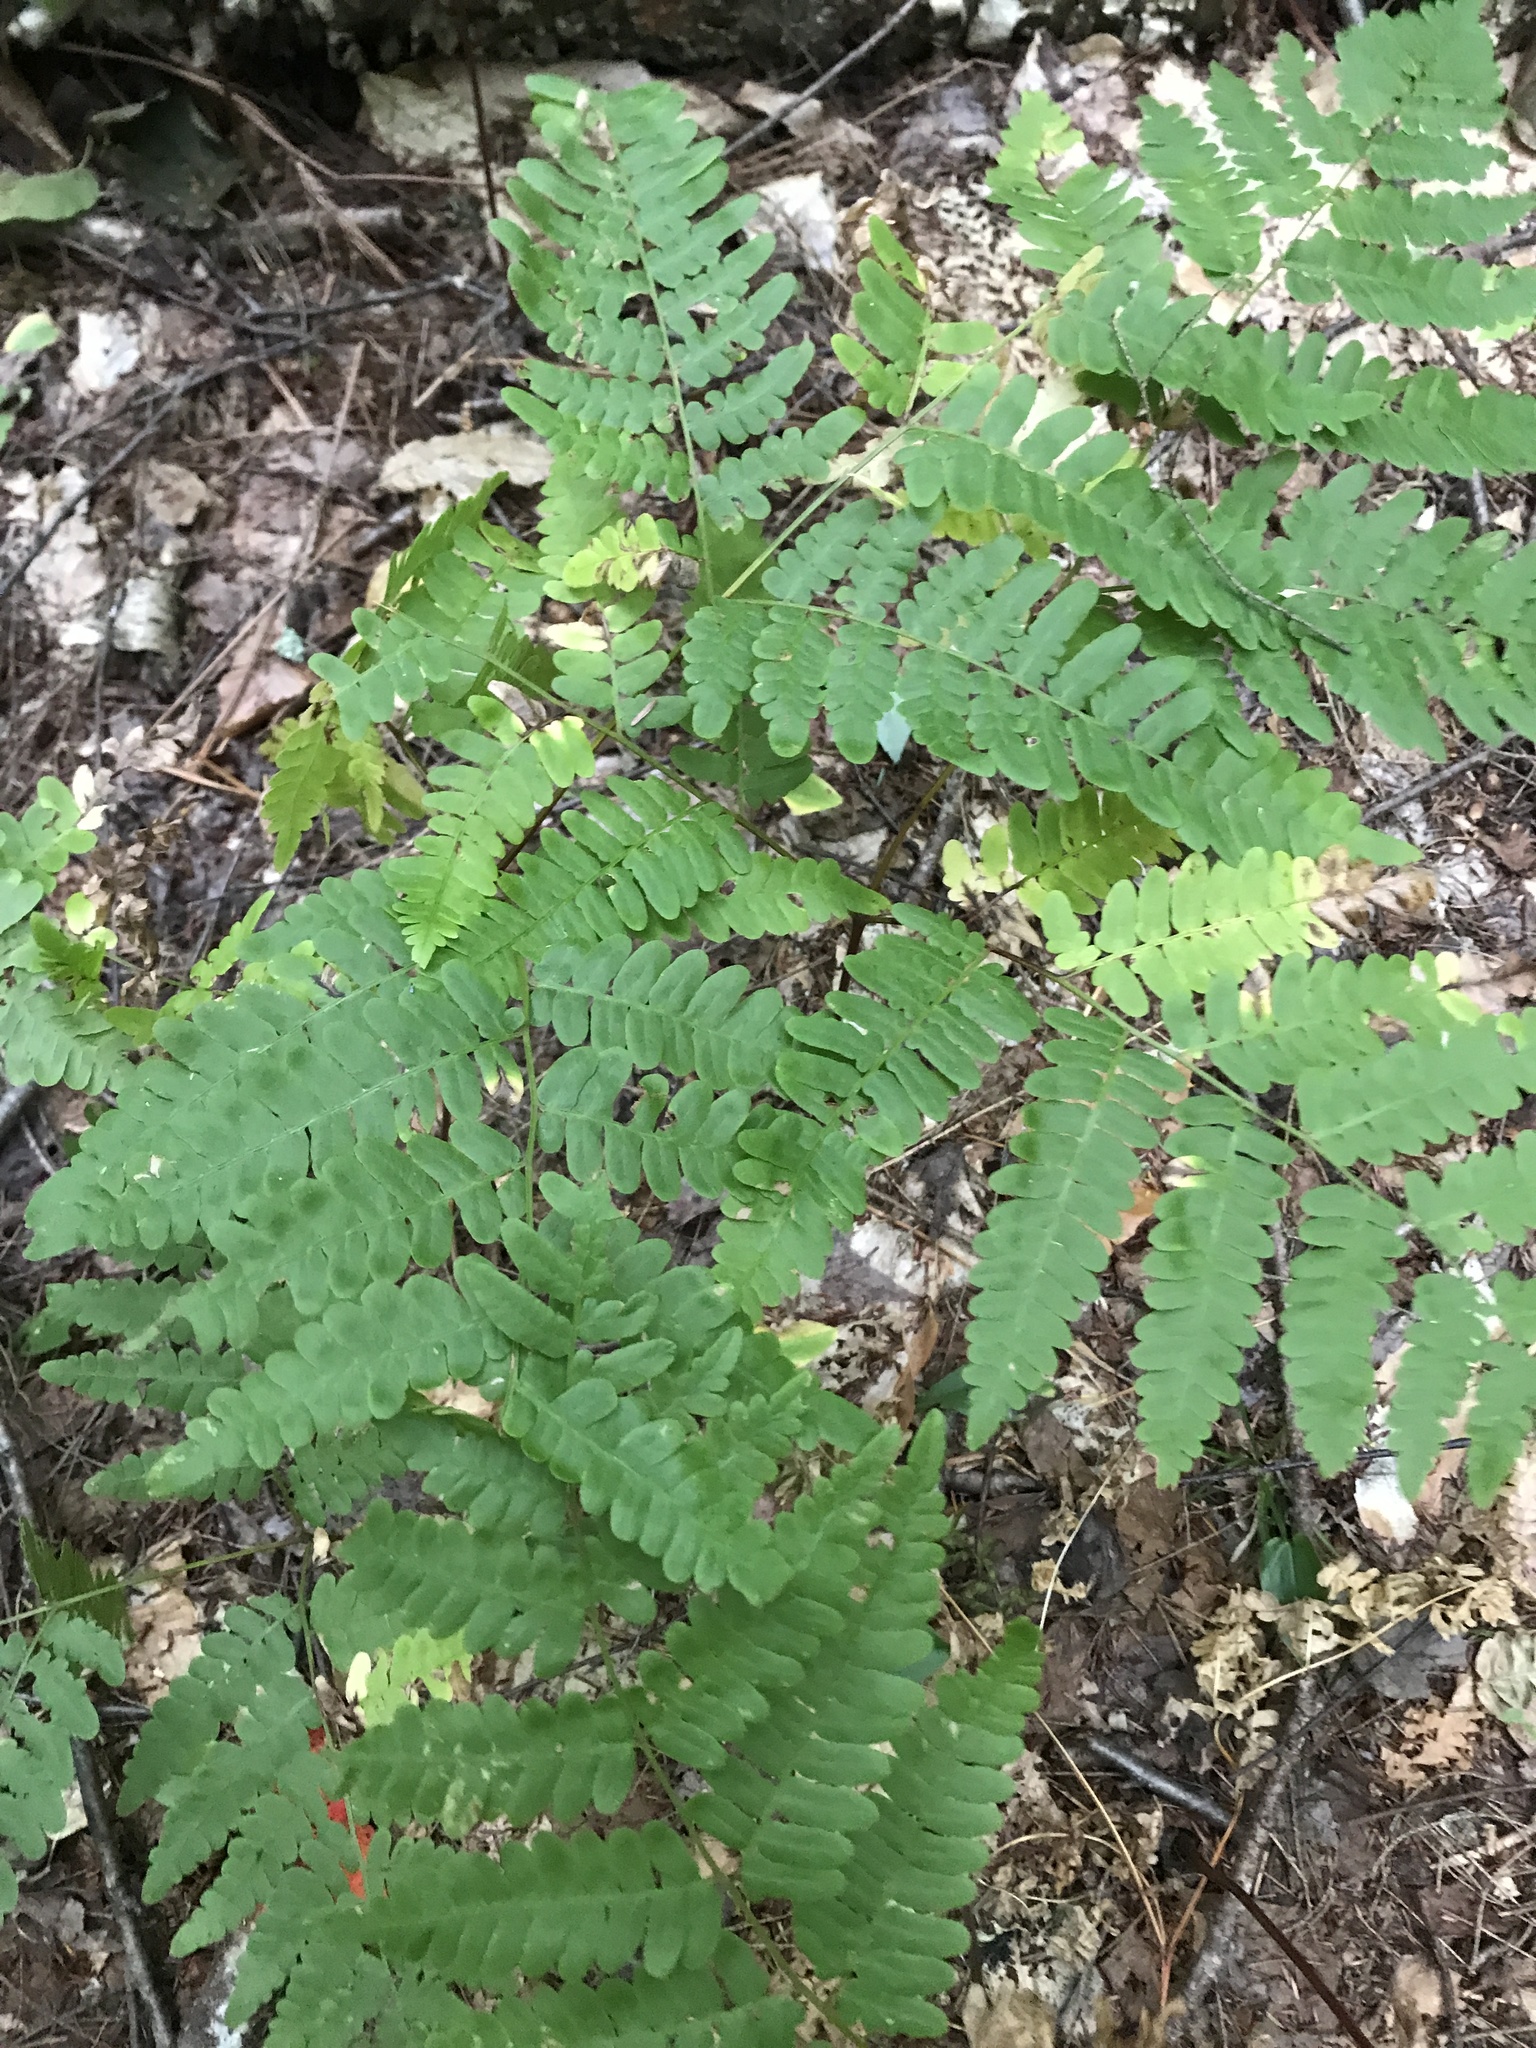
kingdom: Plantae
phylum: Tracheophyta
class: Polypodiopsida
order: Polypodiales
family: Dennstaedtiaceae
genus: Pteridium
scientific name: Pteridium aquilinum
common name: Bracken
